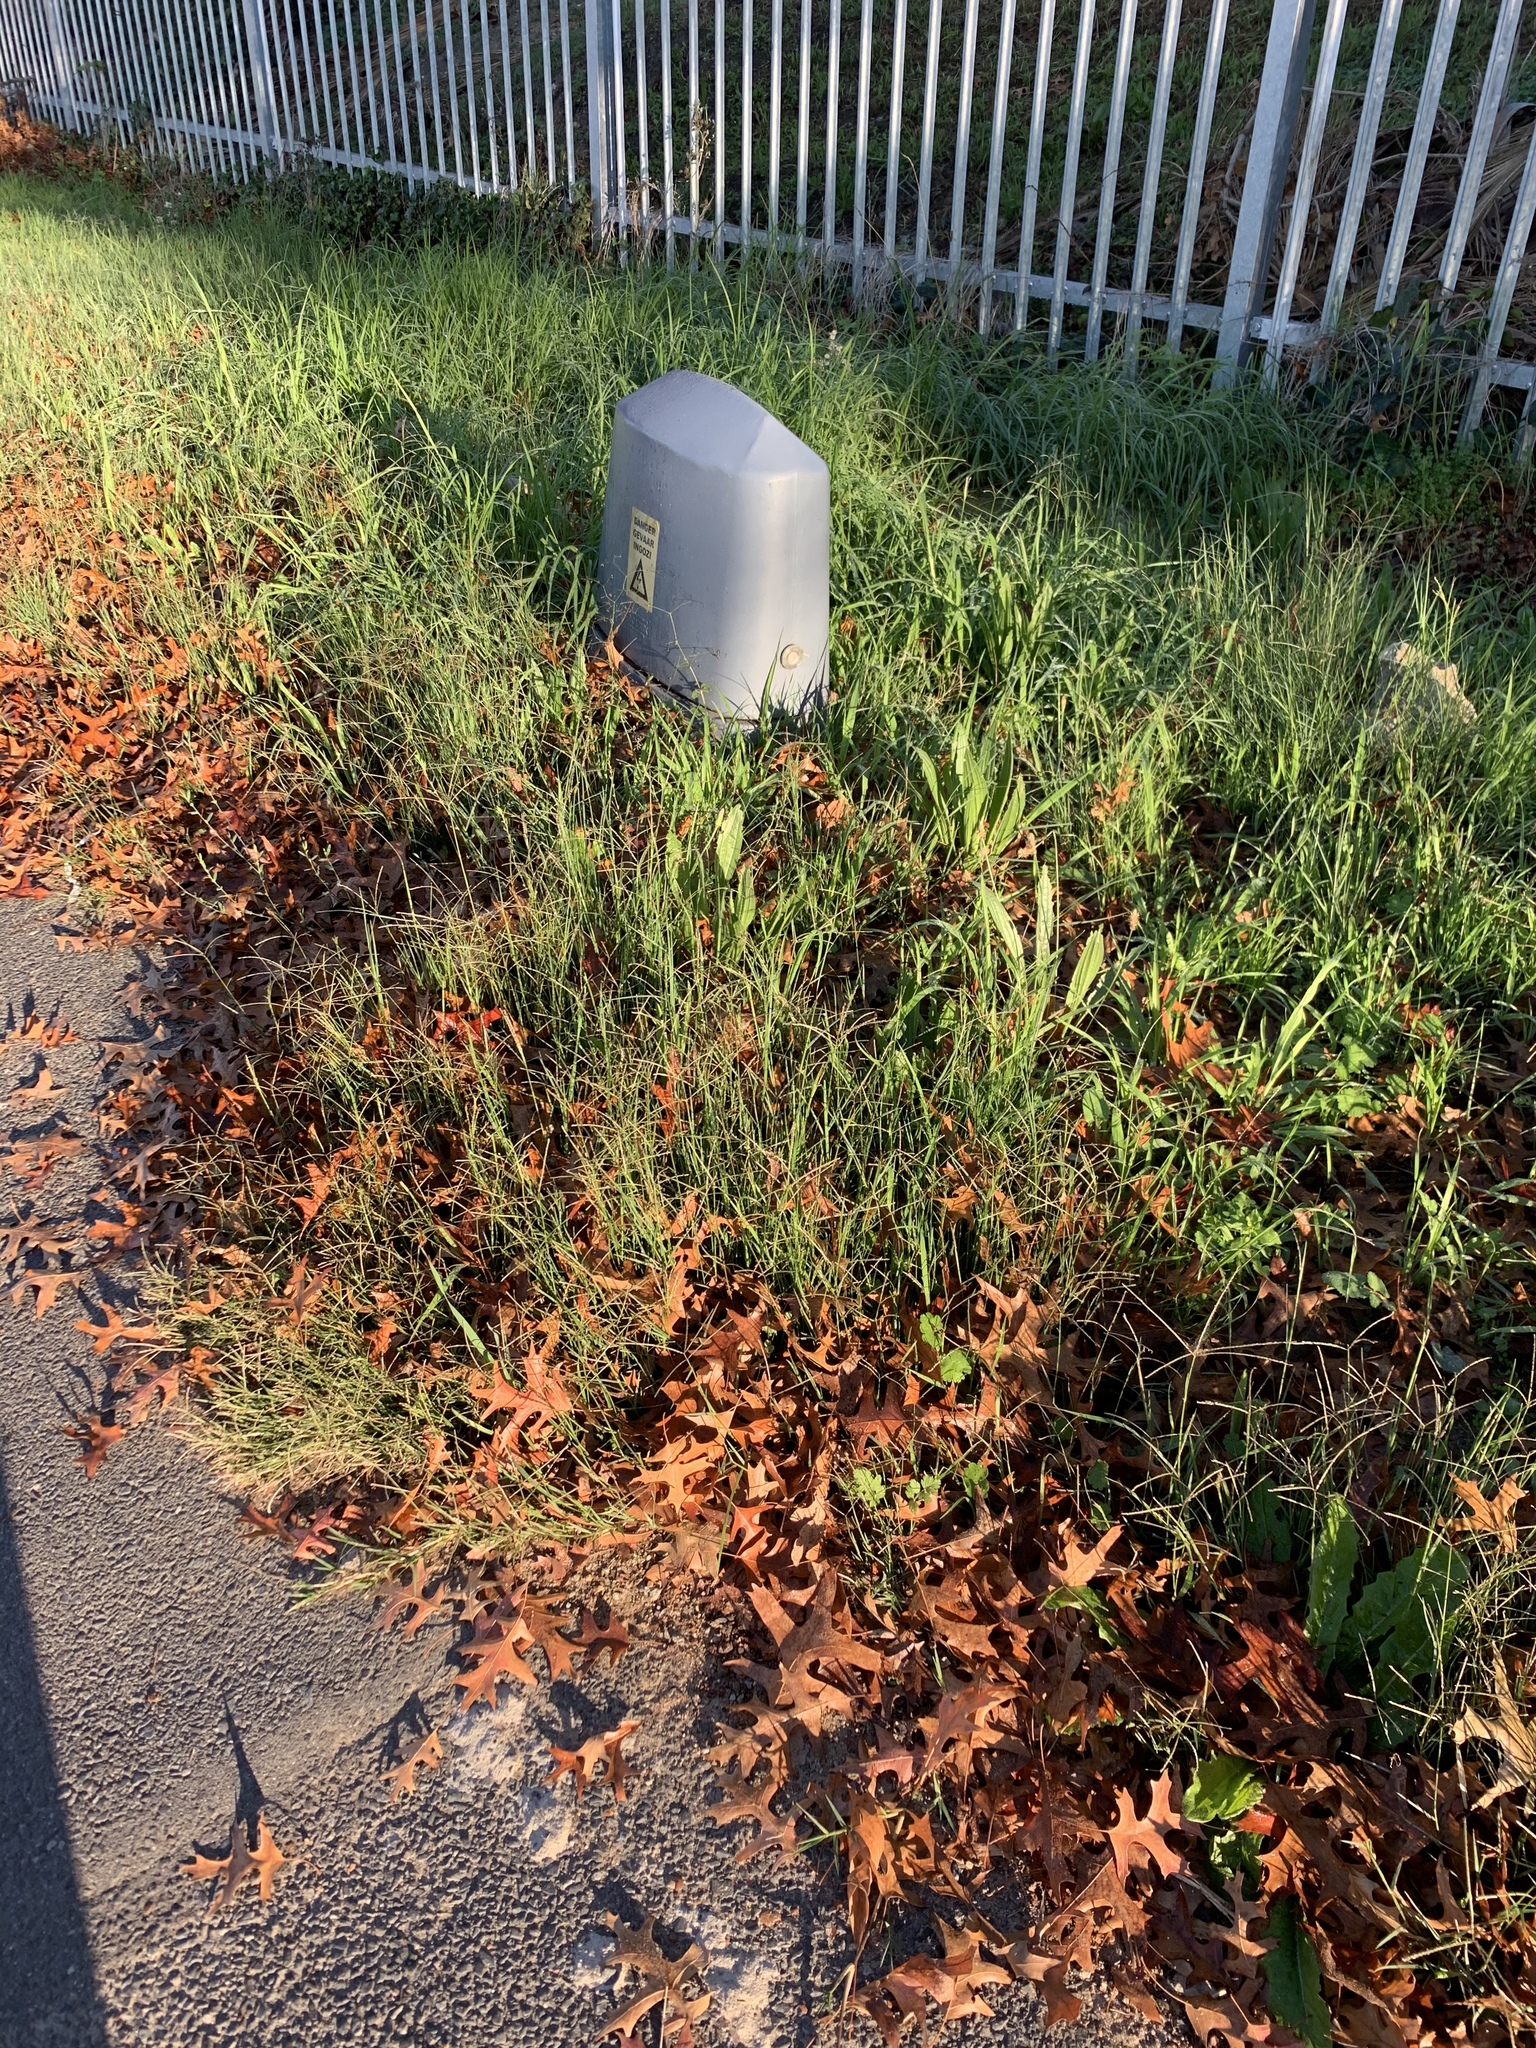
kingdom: Plantae
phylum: Tracheophyta
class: Liliopsida
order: Poales
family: Poaceae
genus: Cynodon
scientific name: Cynodon dactylon
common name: Bermuda grass
